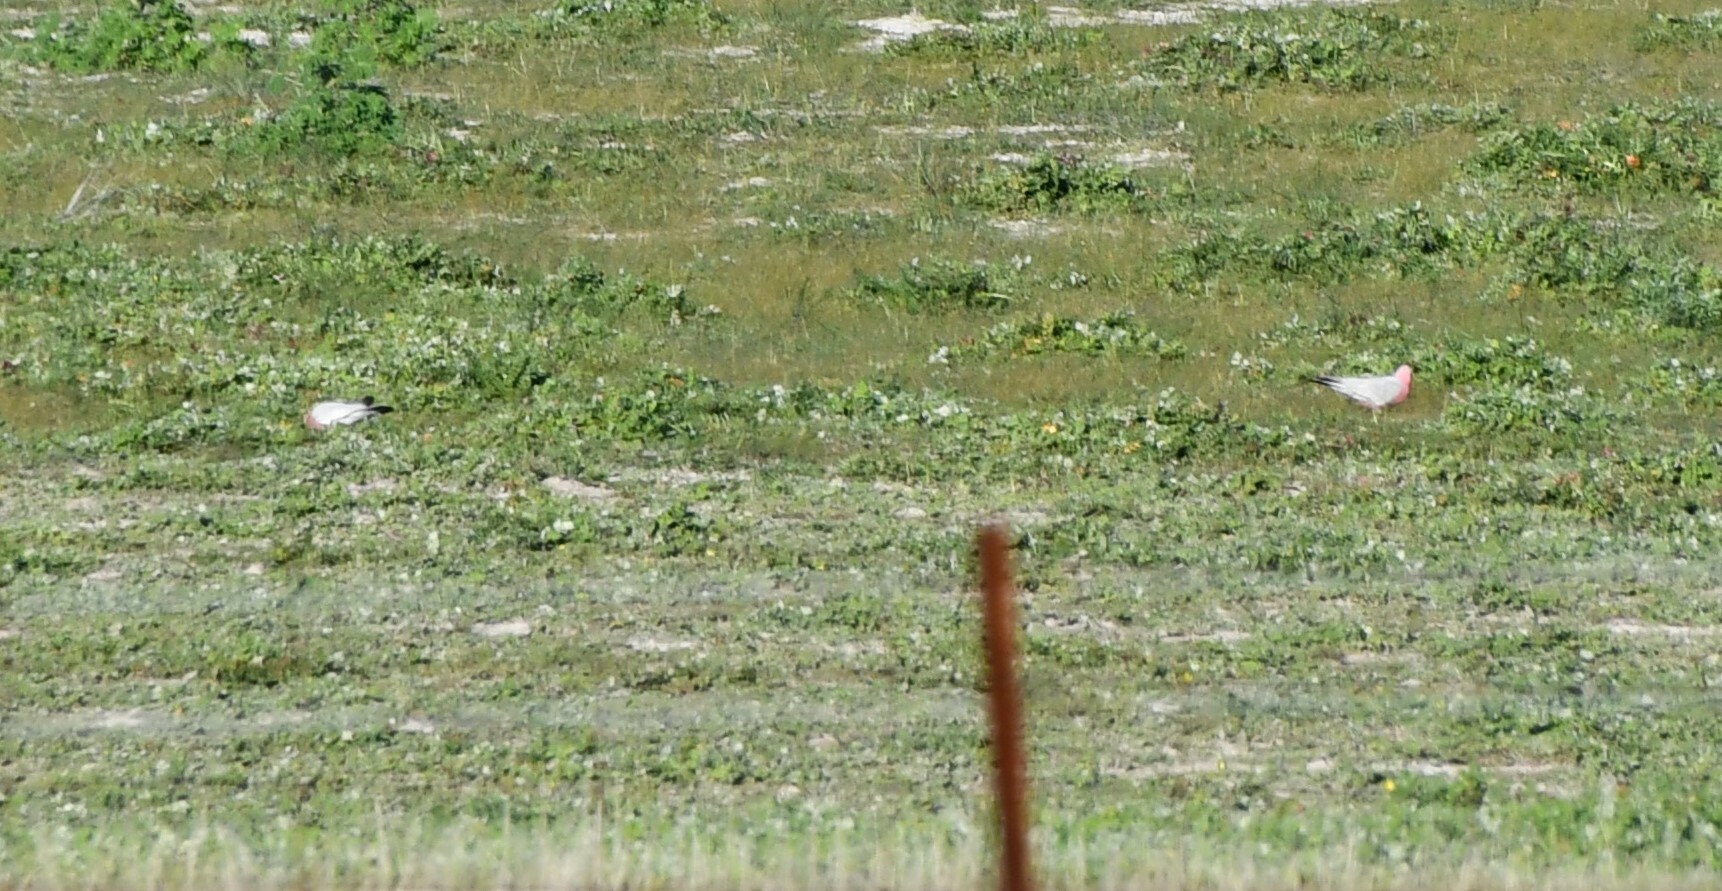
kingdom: Animalia
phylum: Chordata
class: Aves
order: Psittaciformes
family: Psittacidae
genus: Eolophus
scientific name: Eolophus roseicapilla
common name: Galah
